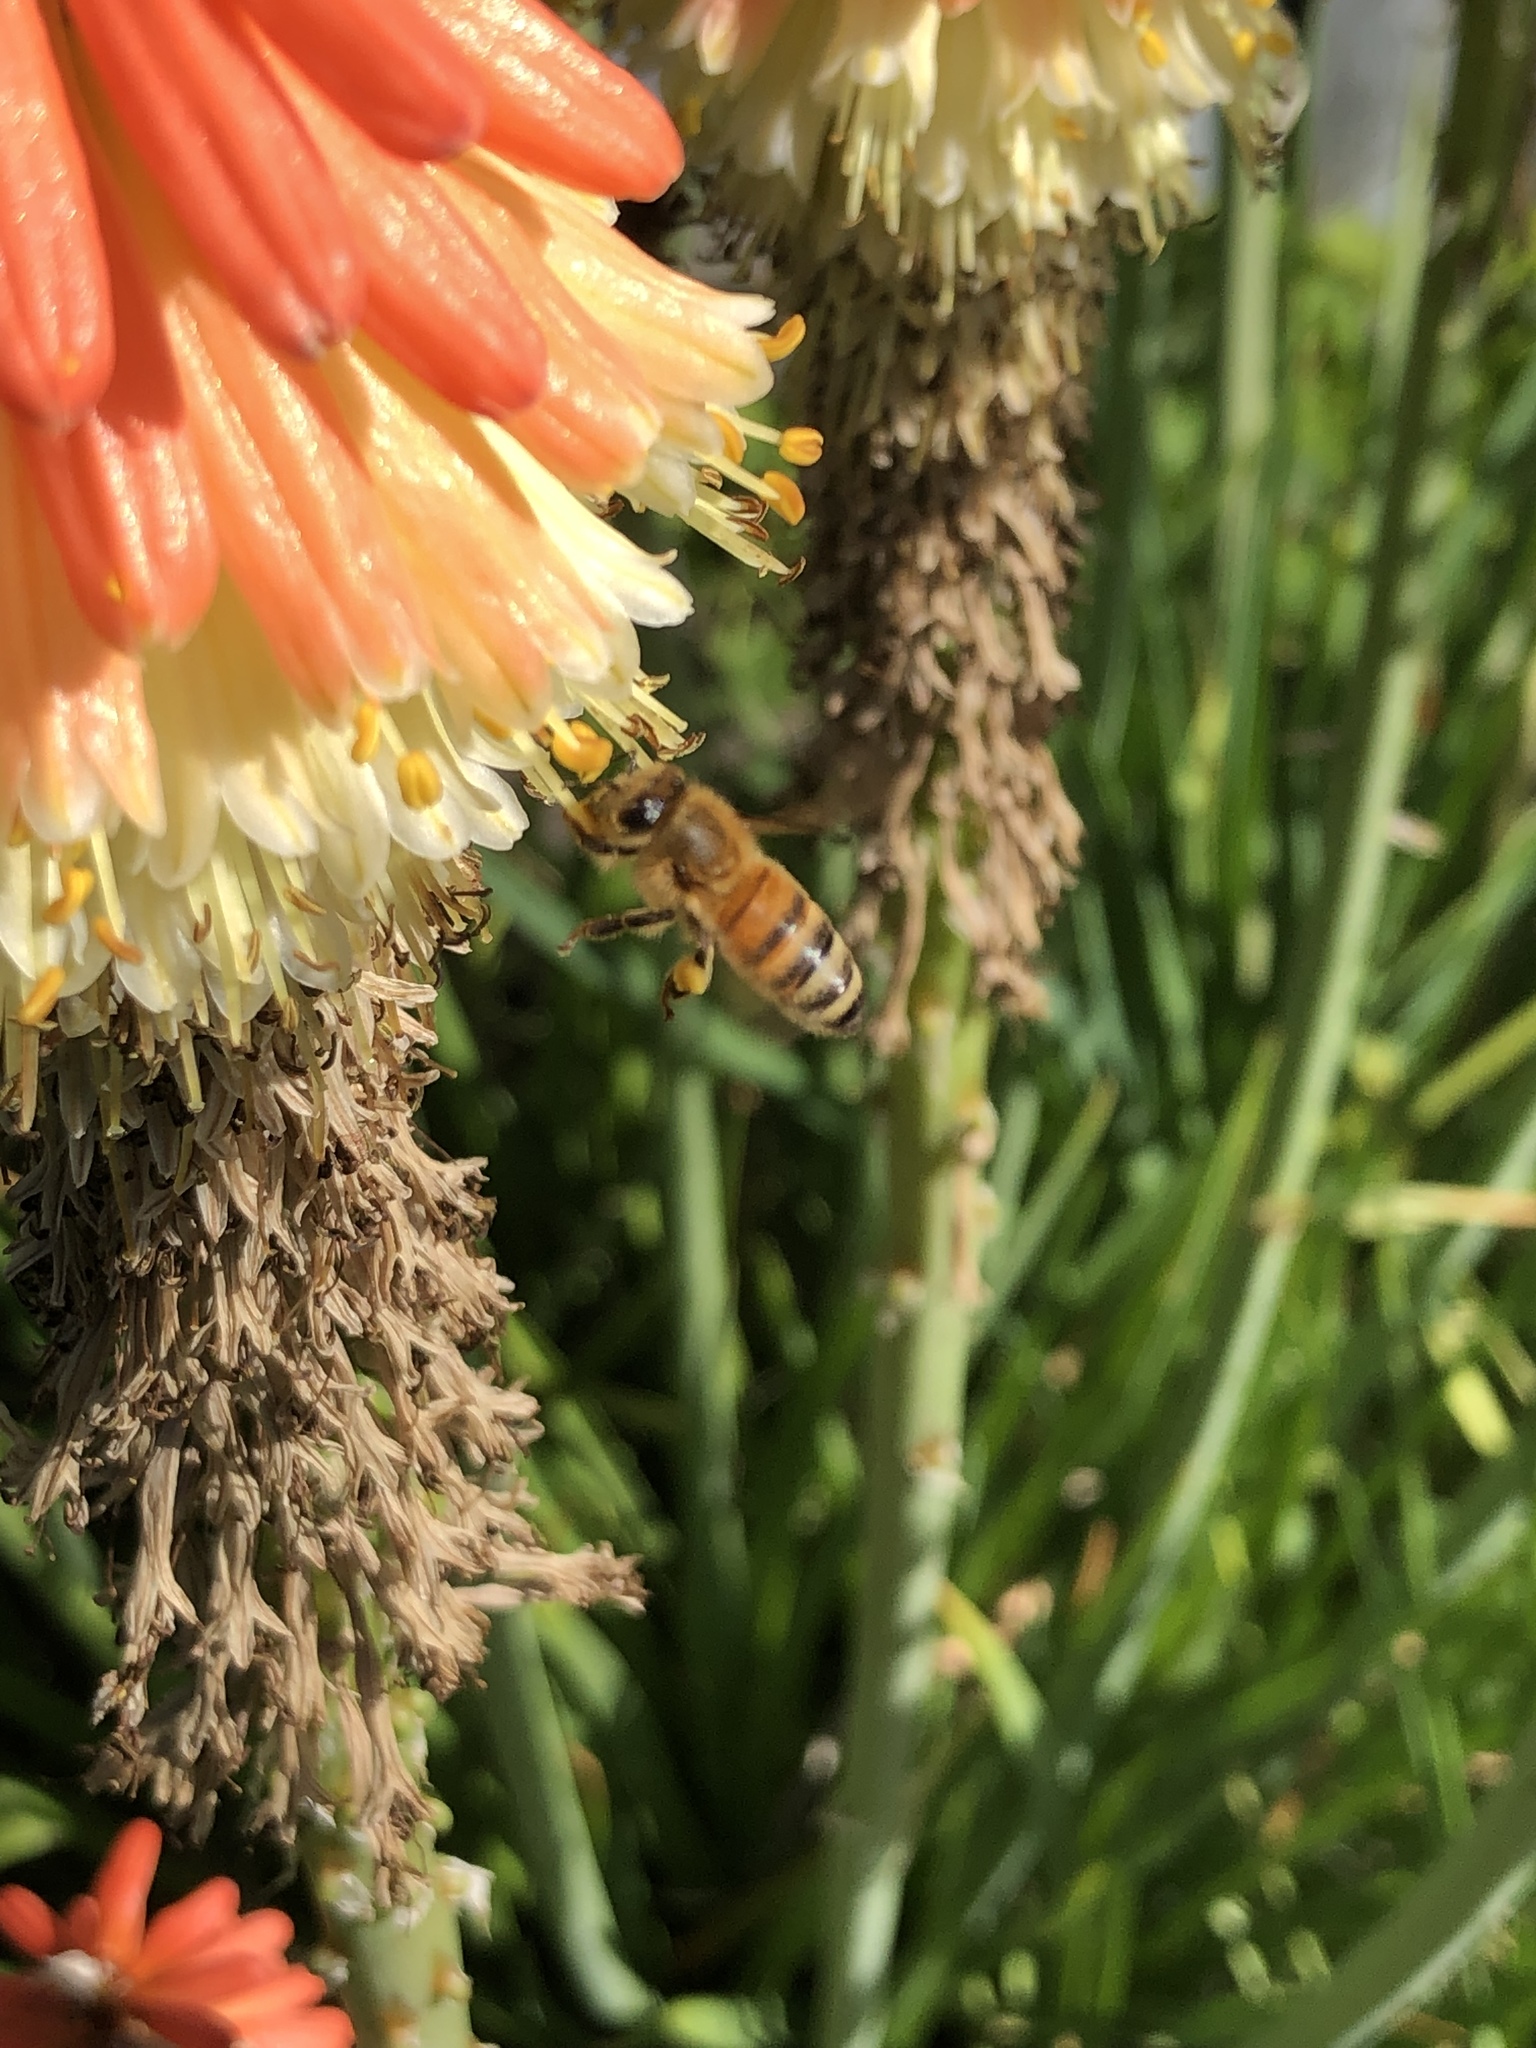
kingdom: Animalia
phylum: Arthropoda
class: Insecta
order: Hymenoptera
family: Apidae
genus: Apis
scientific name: Apis mellifera
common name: Honey bee
